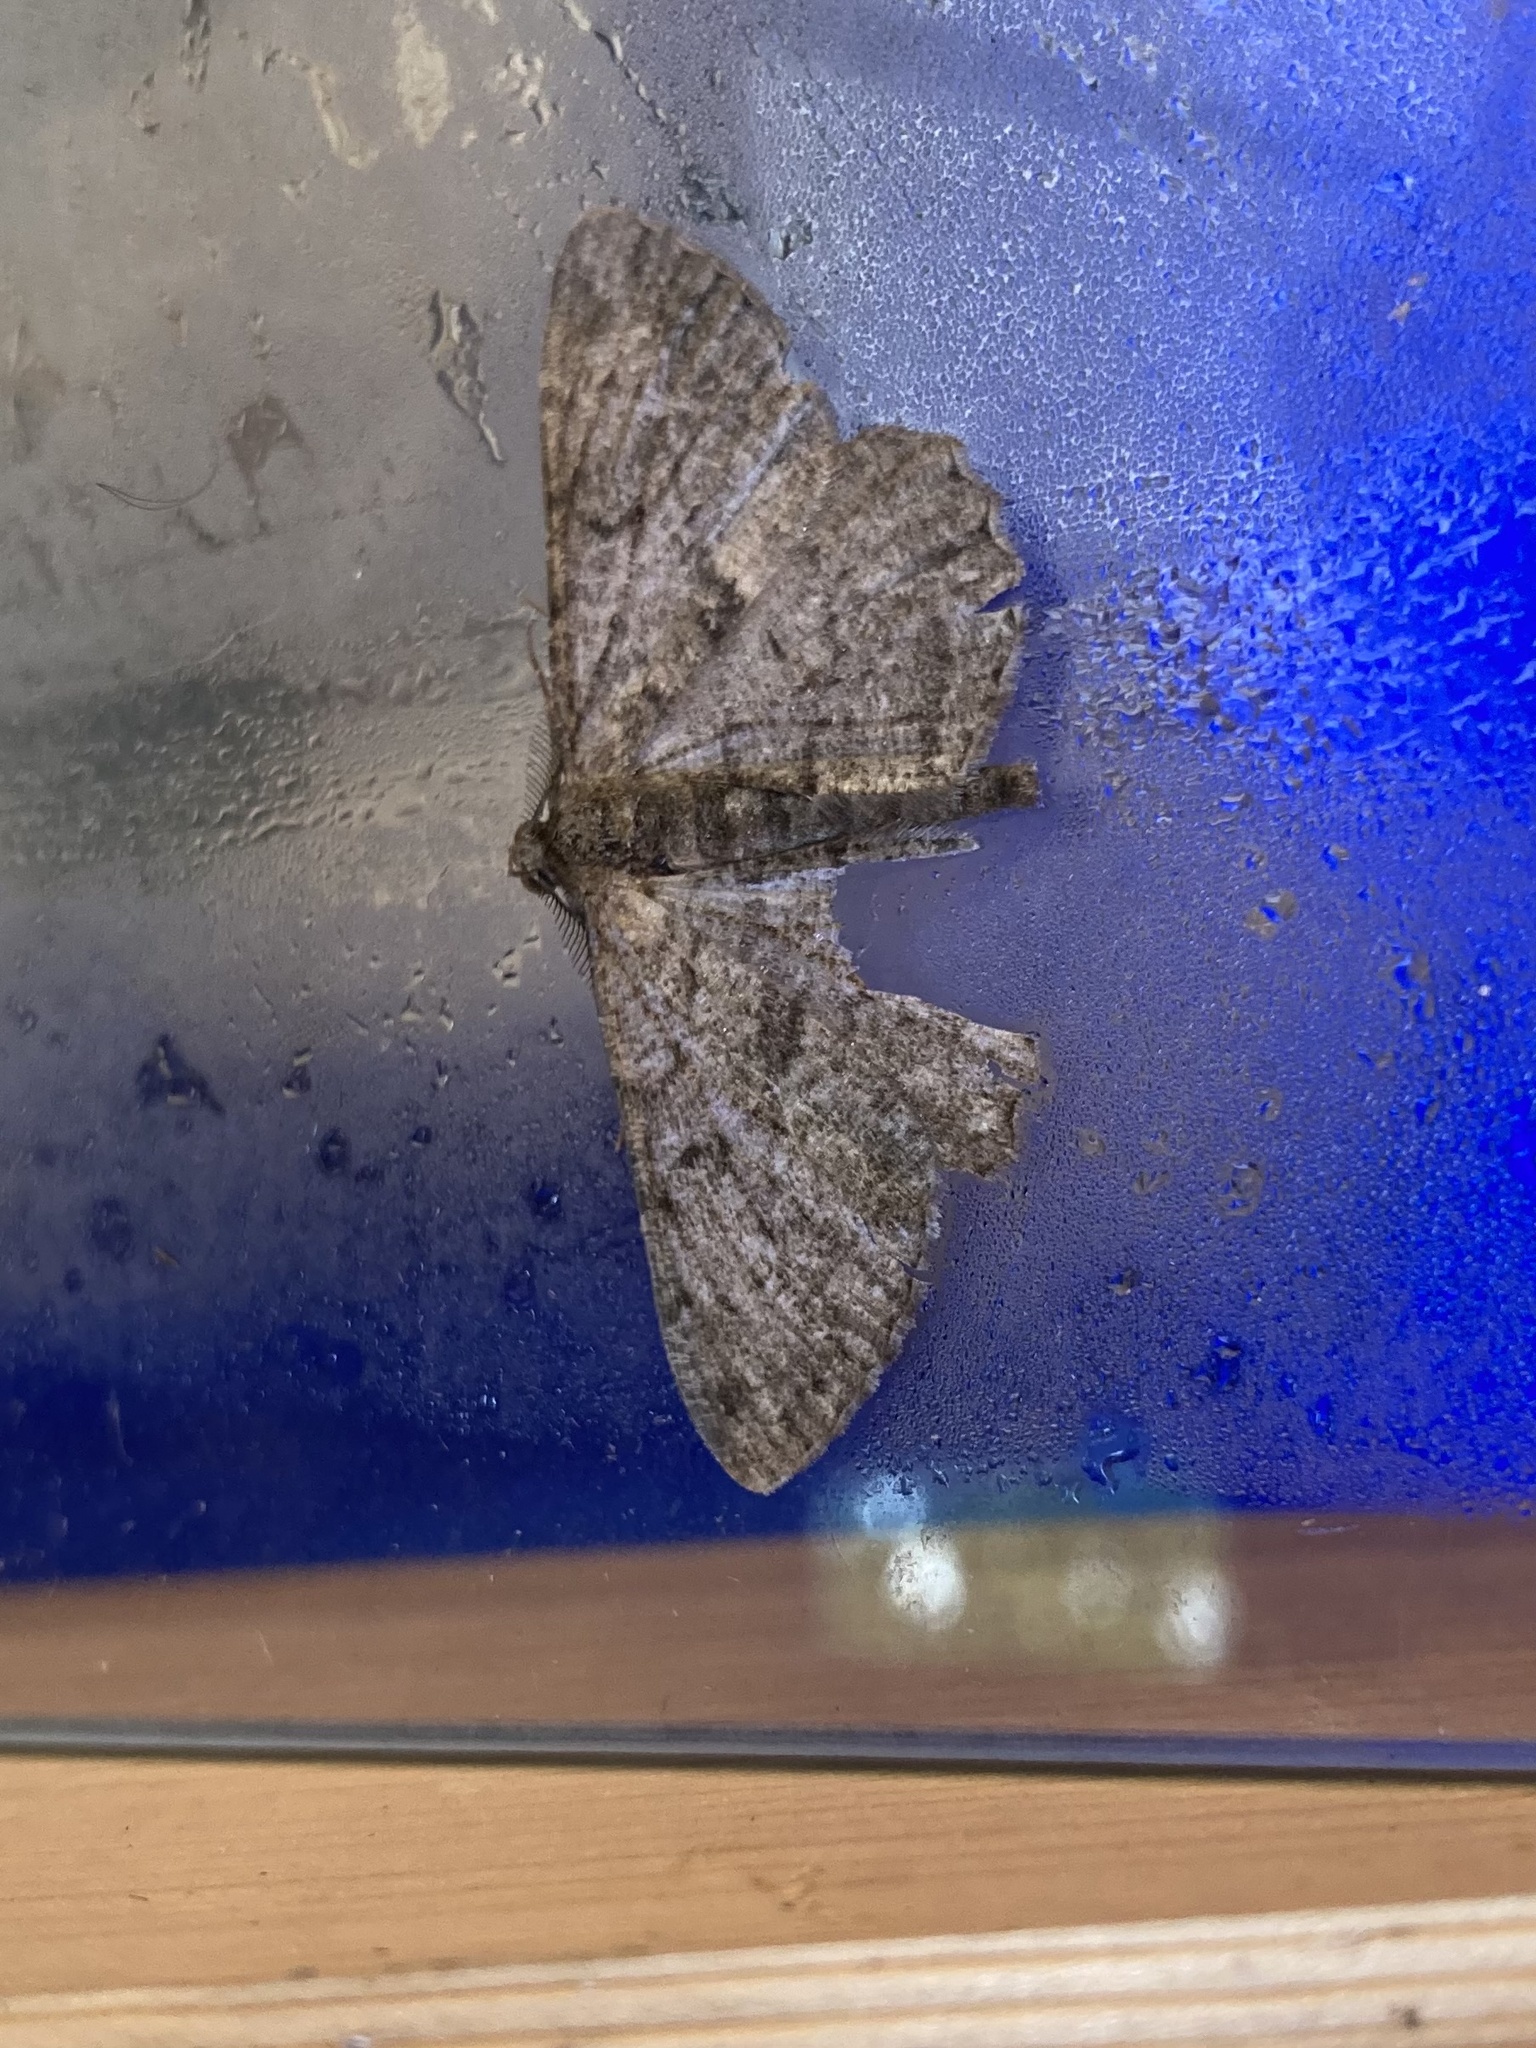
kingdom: Animalia
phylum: Arthropoda
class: Insecta
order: Lepidoptera
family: Geometridae
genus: Peribatodes
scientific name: Peribatodes rhomboidaria
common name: Willow beauty
